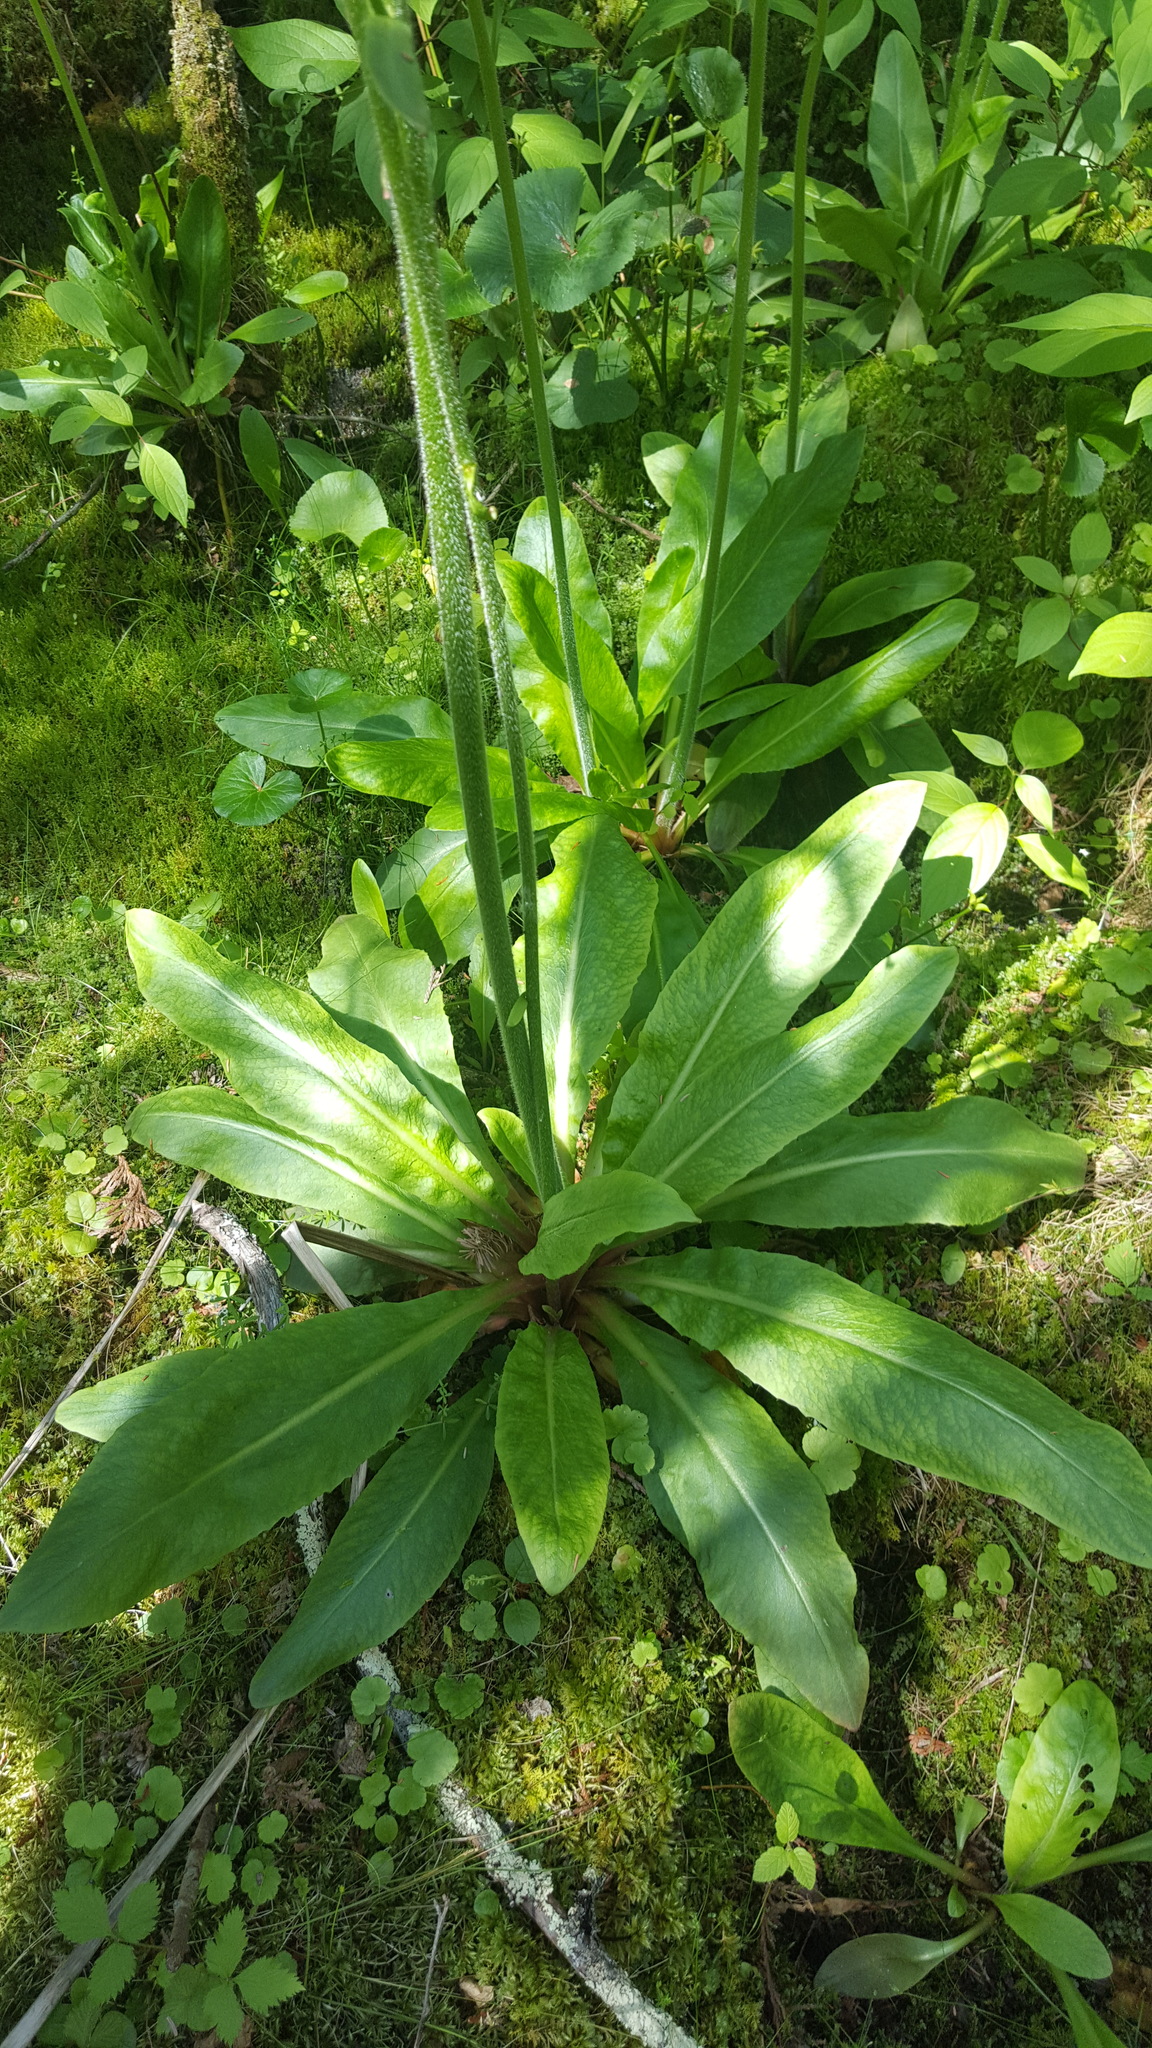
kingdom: Plantae
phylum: Tracheophyta
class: Magnoliopsida
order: Saxifragales
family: Saxifragaceae
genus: Micranthes
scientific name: Micranthes pensylvanica
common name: Marsh saxifrage
